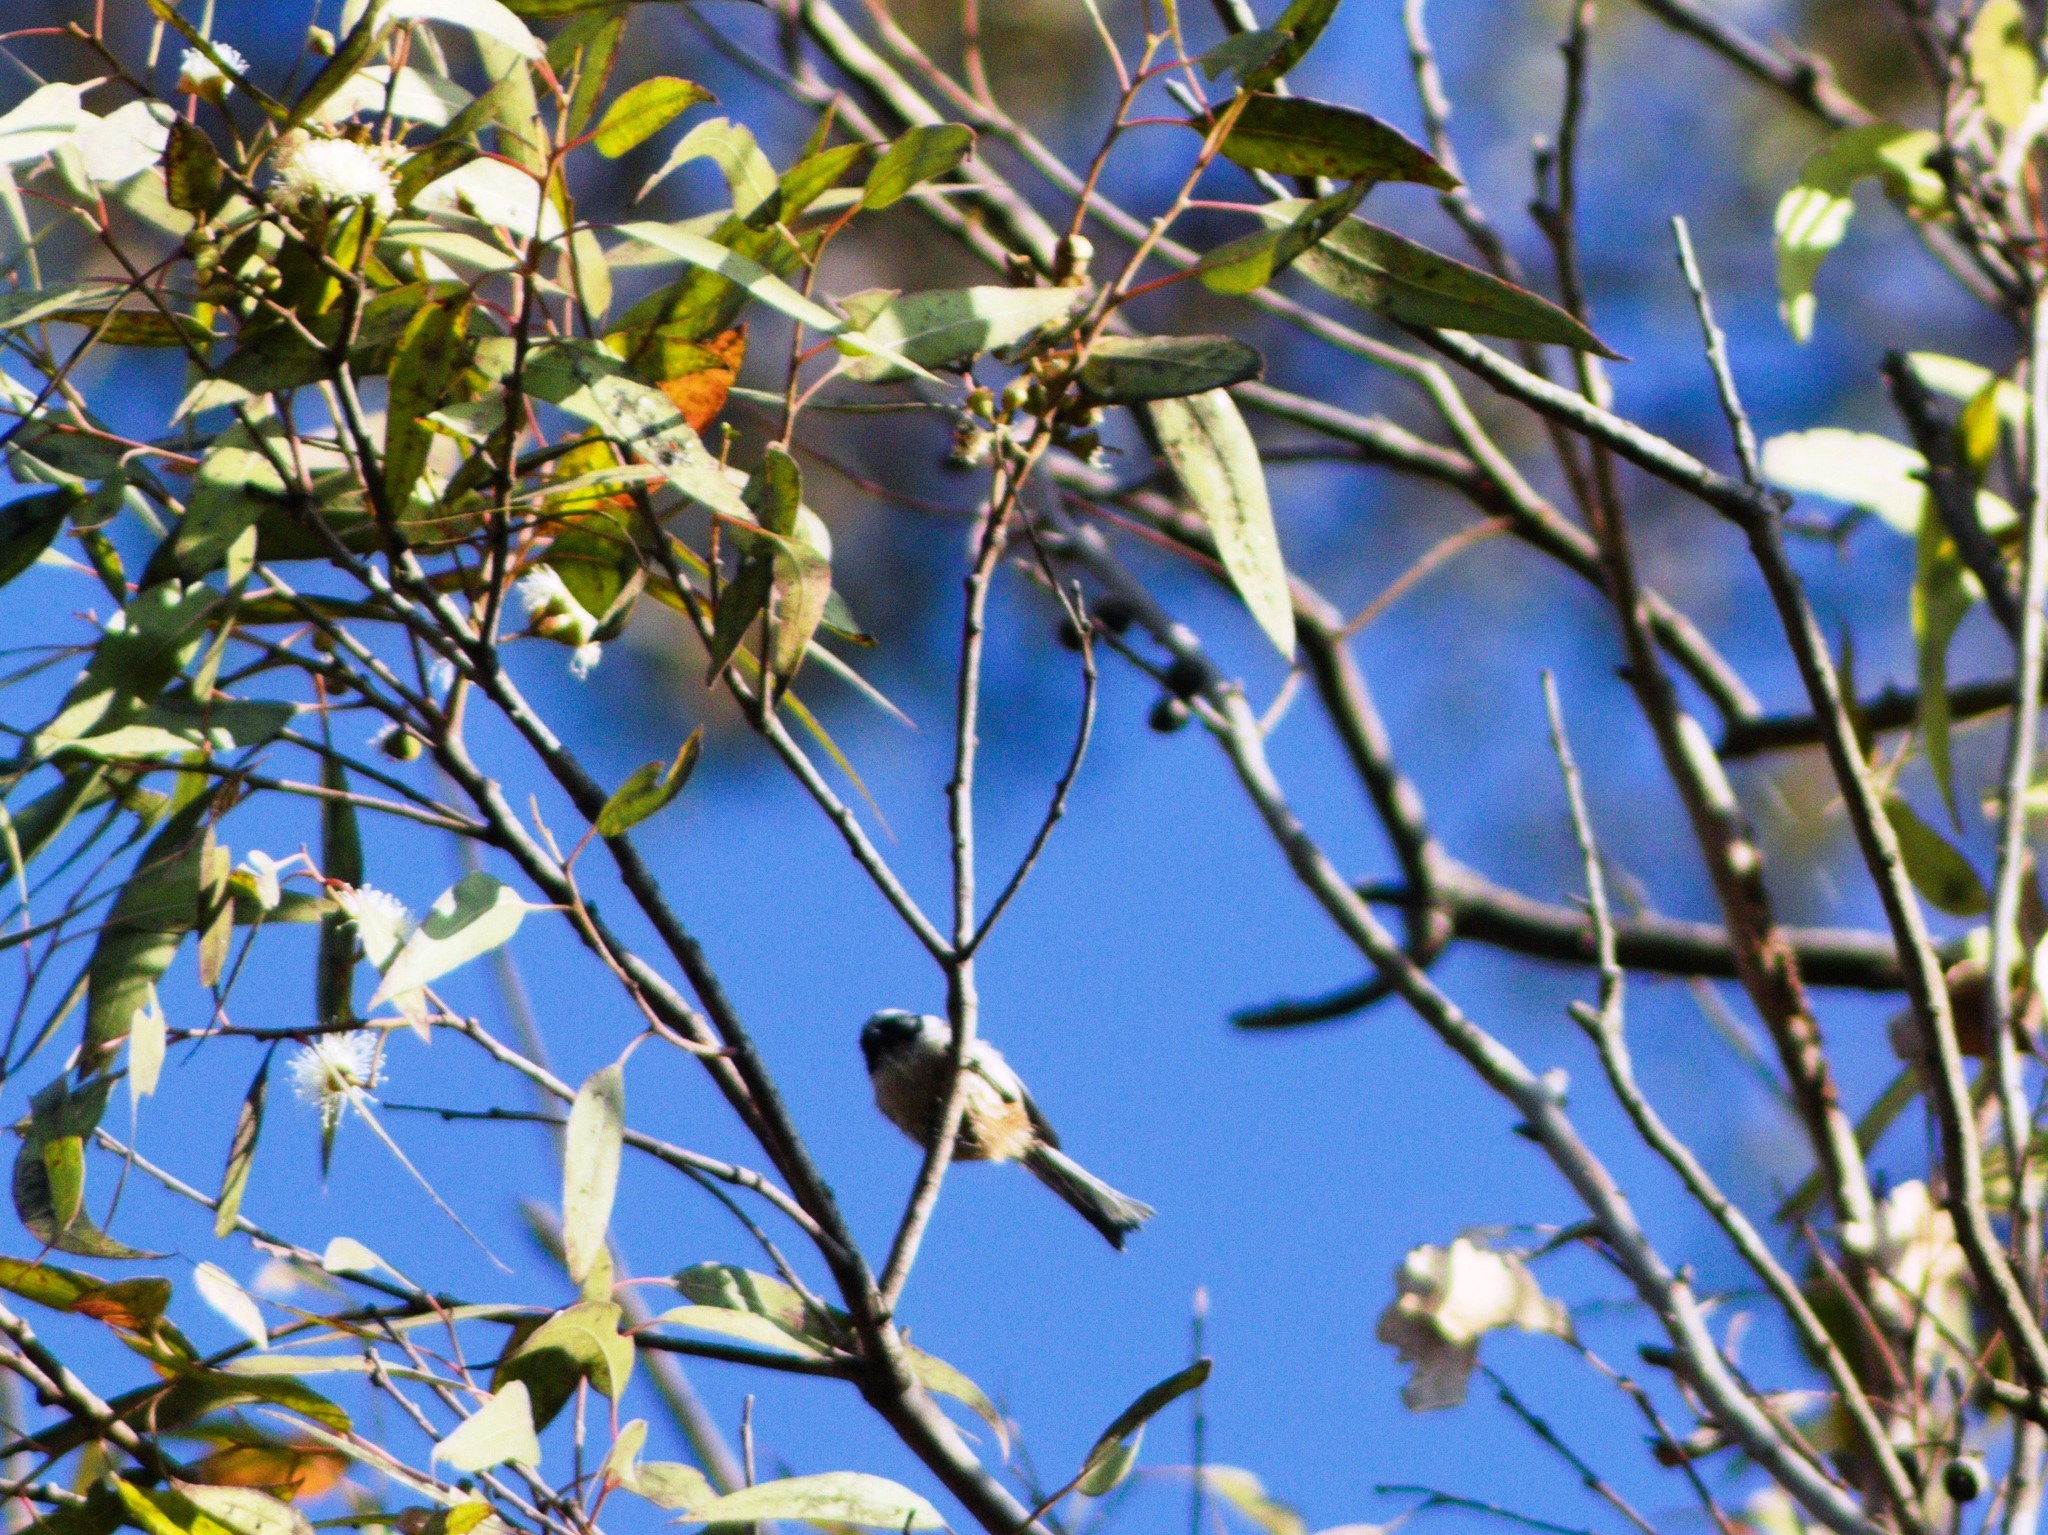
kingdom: Animalia
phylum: Chordata
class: Aves
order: Passeriformes
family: Aegithalidae
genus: Psaltriparus
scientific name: Psaltriparus minimus
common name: American bushtit
